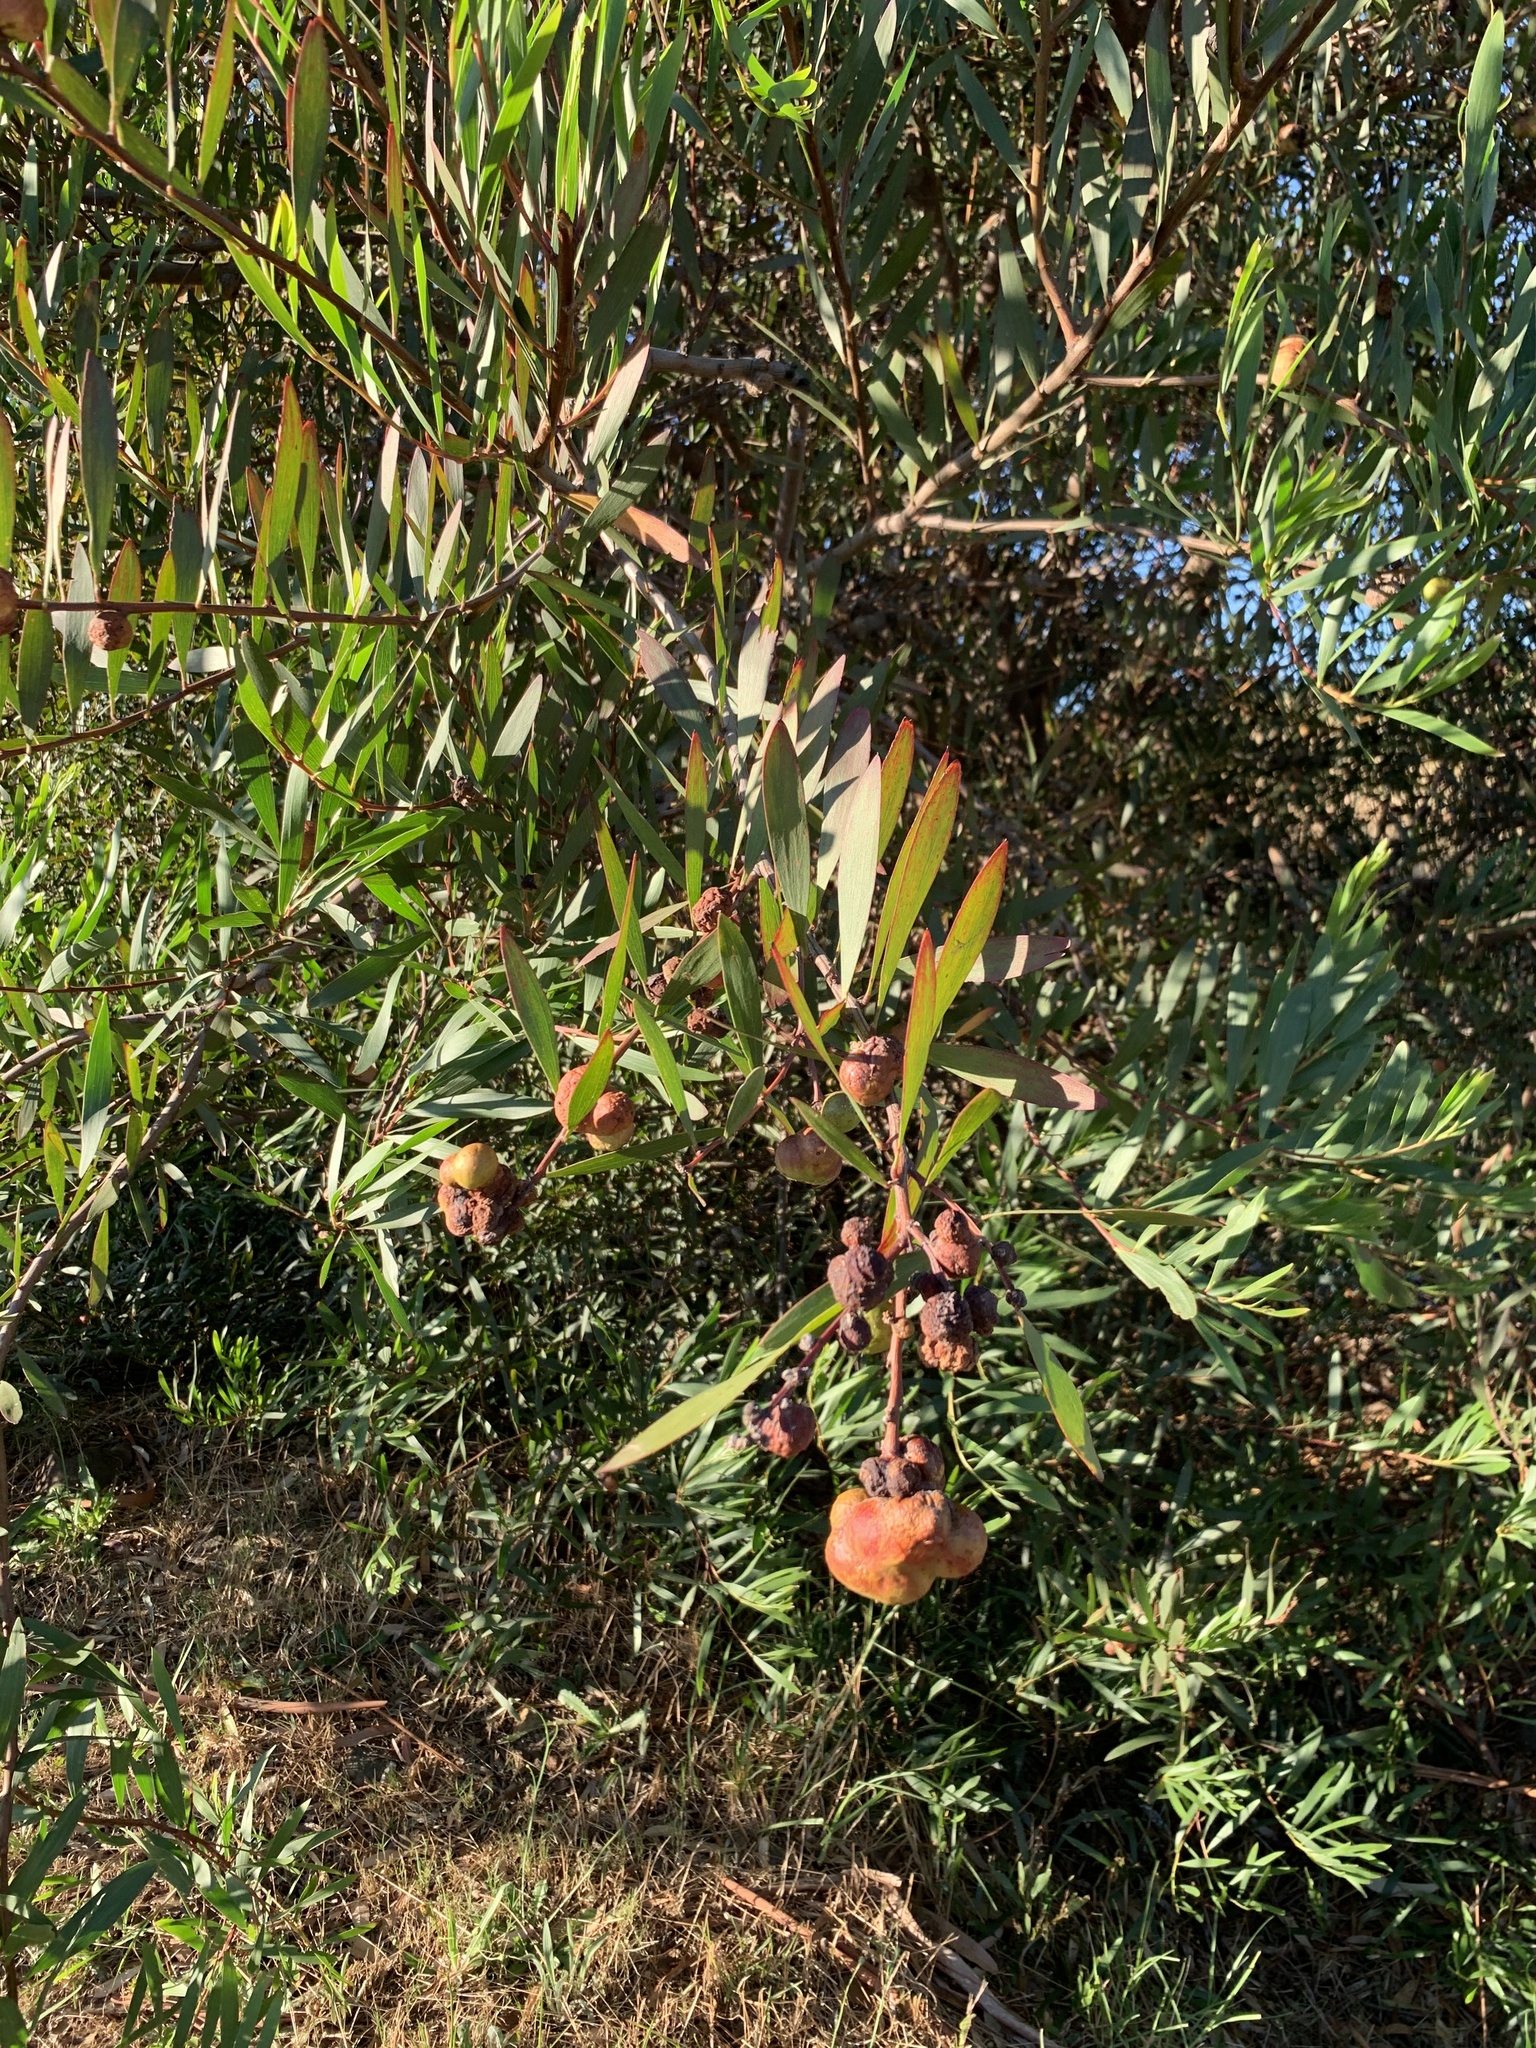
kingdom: Plantae
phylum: Tracheophyta
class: Magnoliopsida
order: Fabales
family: Fabaceae
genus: Acacia
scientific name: Acacia longifolia
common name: Sydney golden wattle
